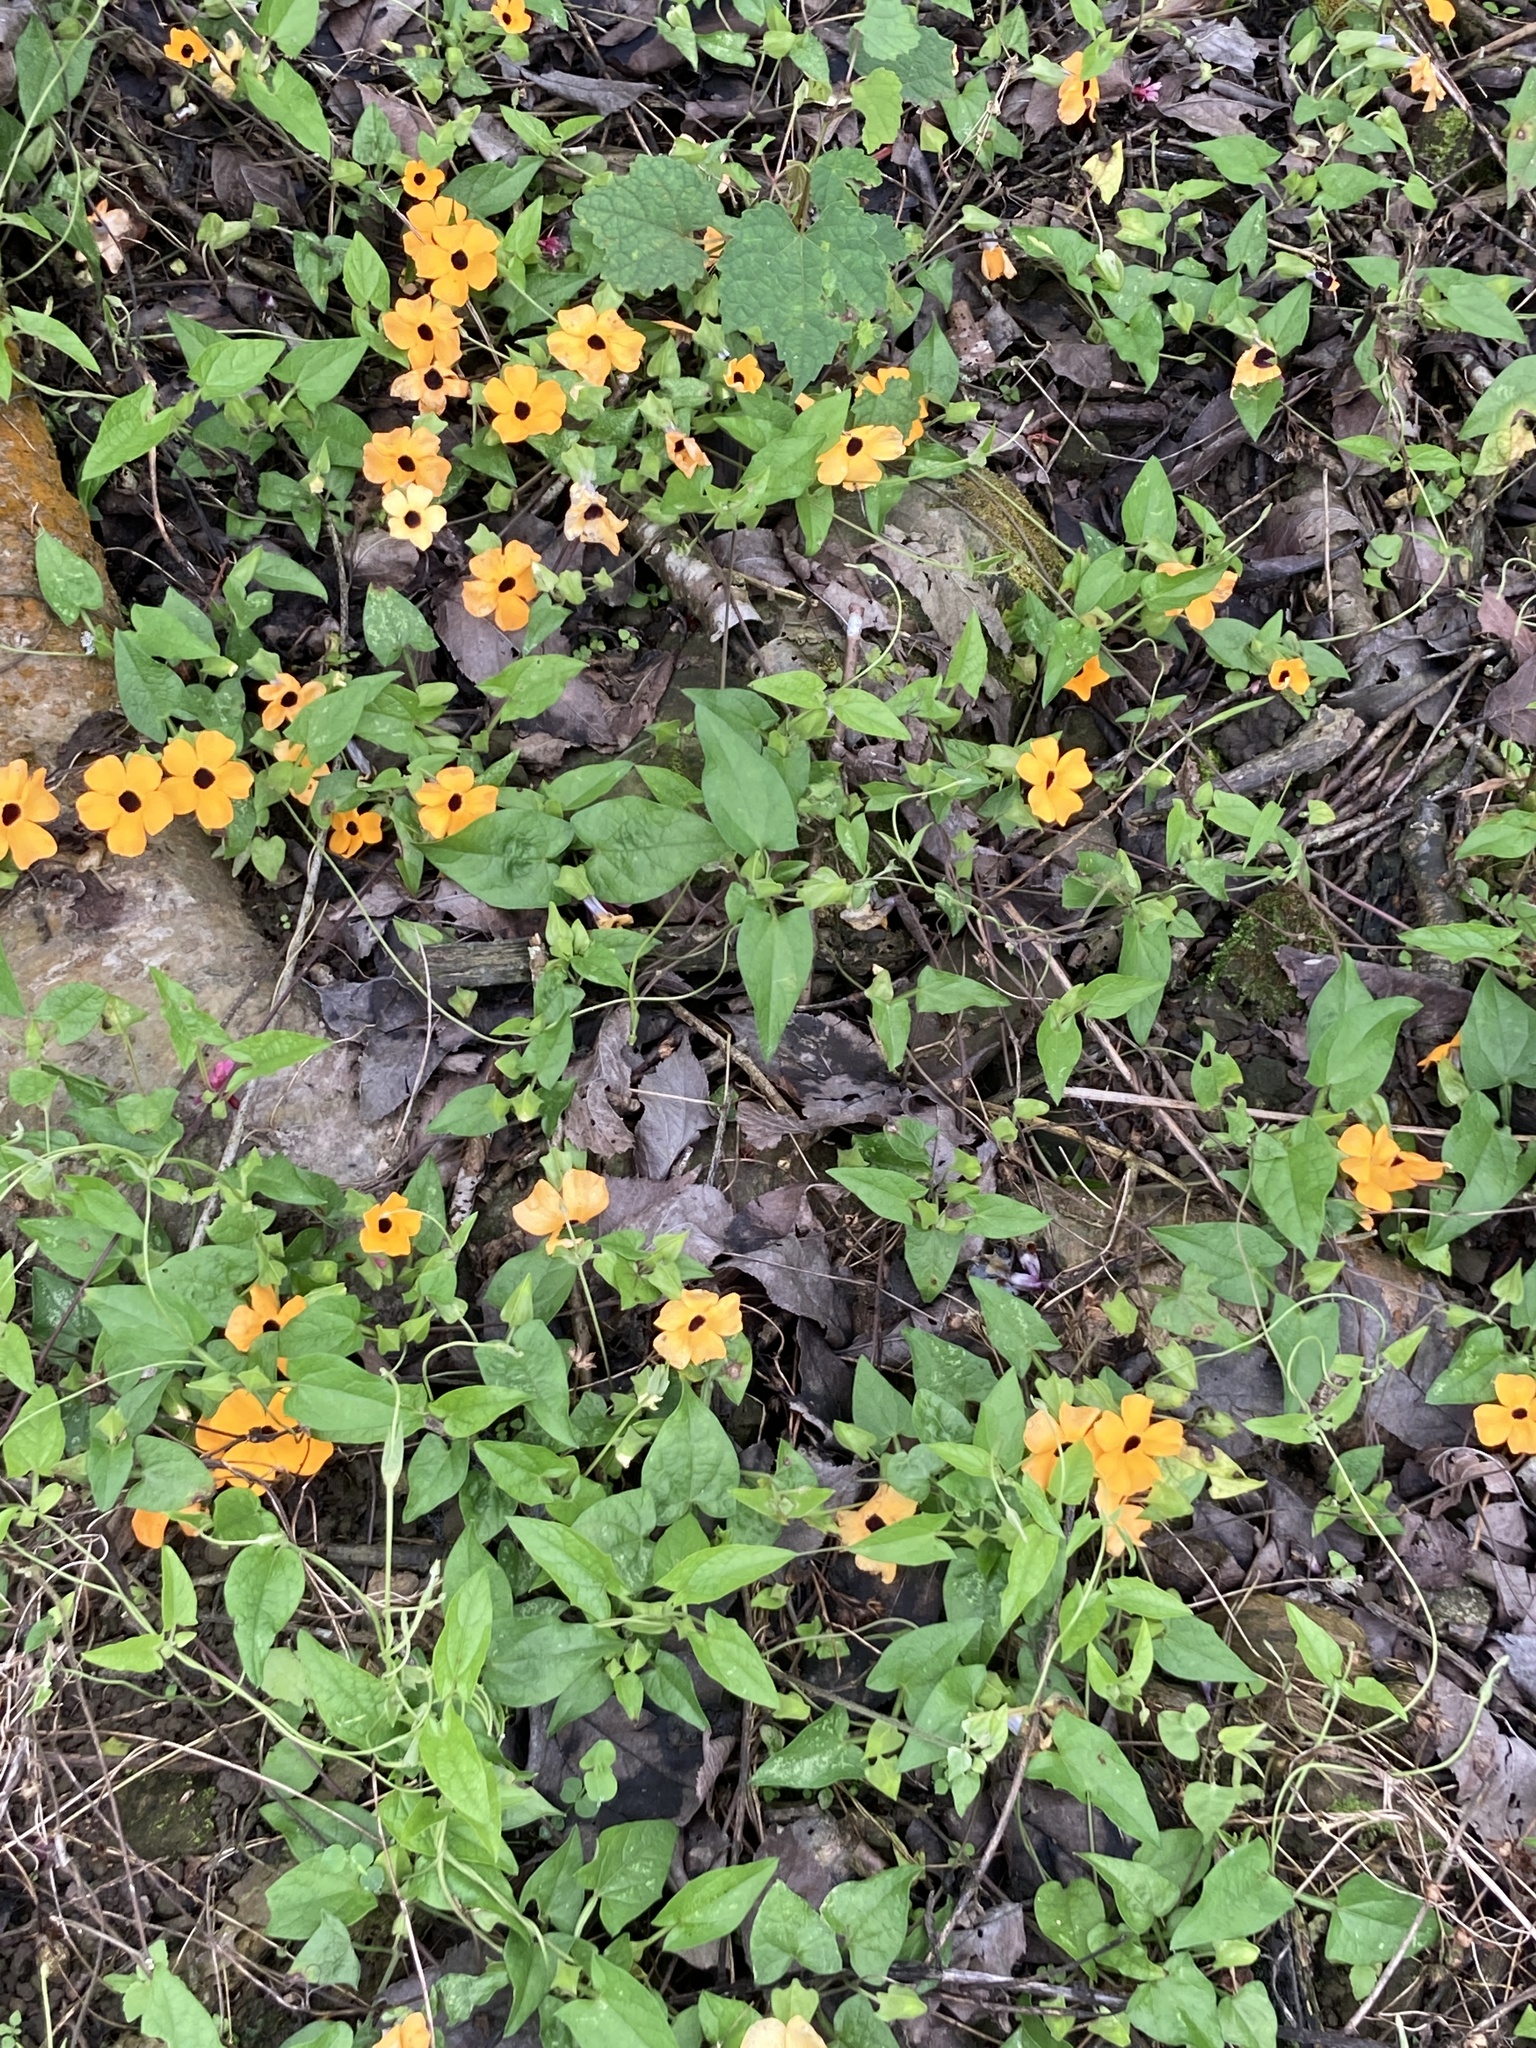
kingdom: Plantae
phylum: Tracheophyta
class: Magnoliopsida
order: Lamiales
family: Acanthaceae
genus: Thunbergia
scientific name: Thunbergia alata
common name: Blackeyed susan vine
